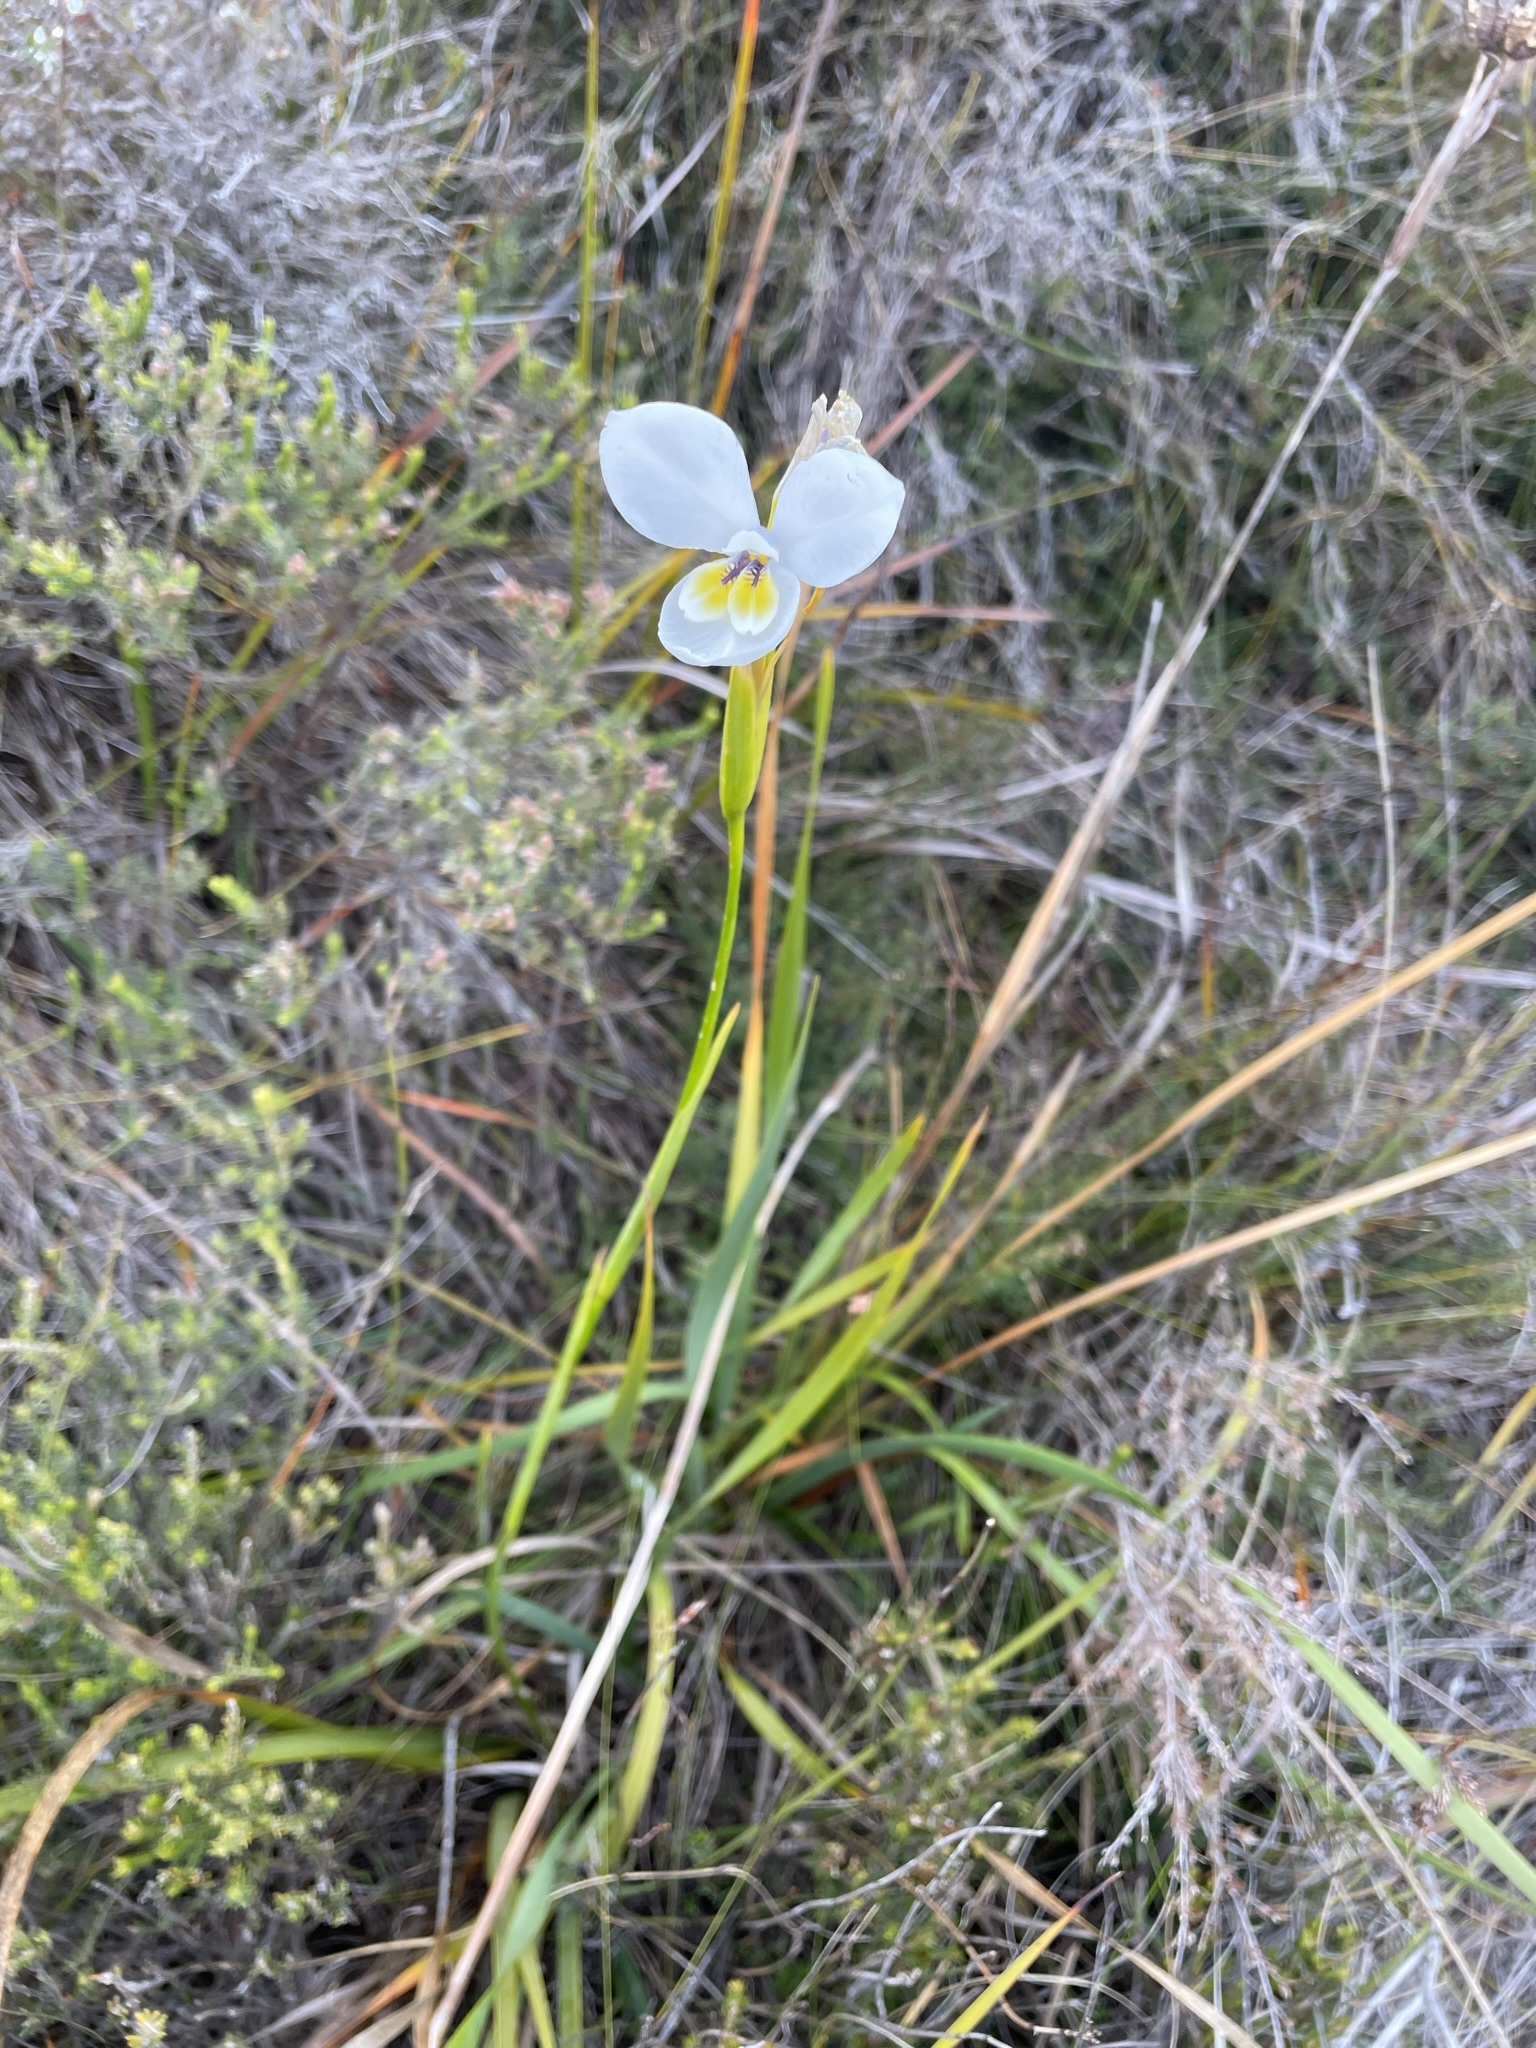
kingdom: Plantae
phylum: Tracheophyta
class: Liliopsida
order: Asparagales
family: Iridaceae
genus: Diplarrena
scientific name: Diplarrena moraea
